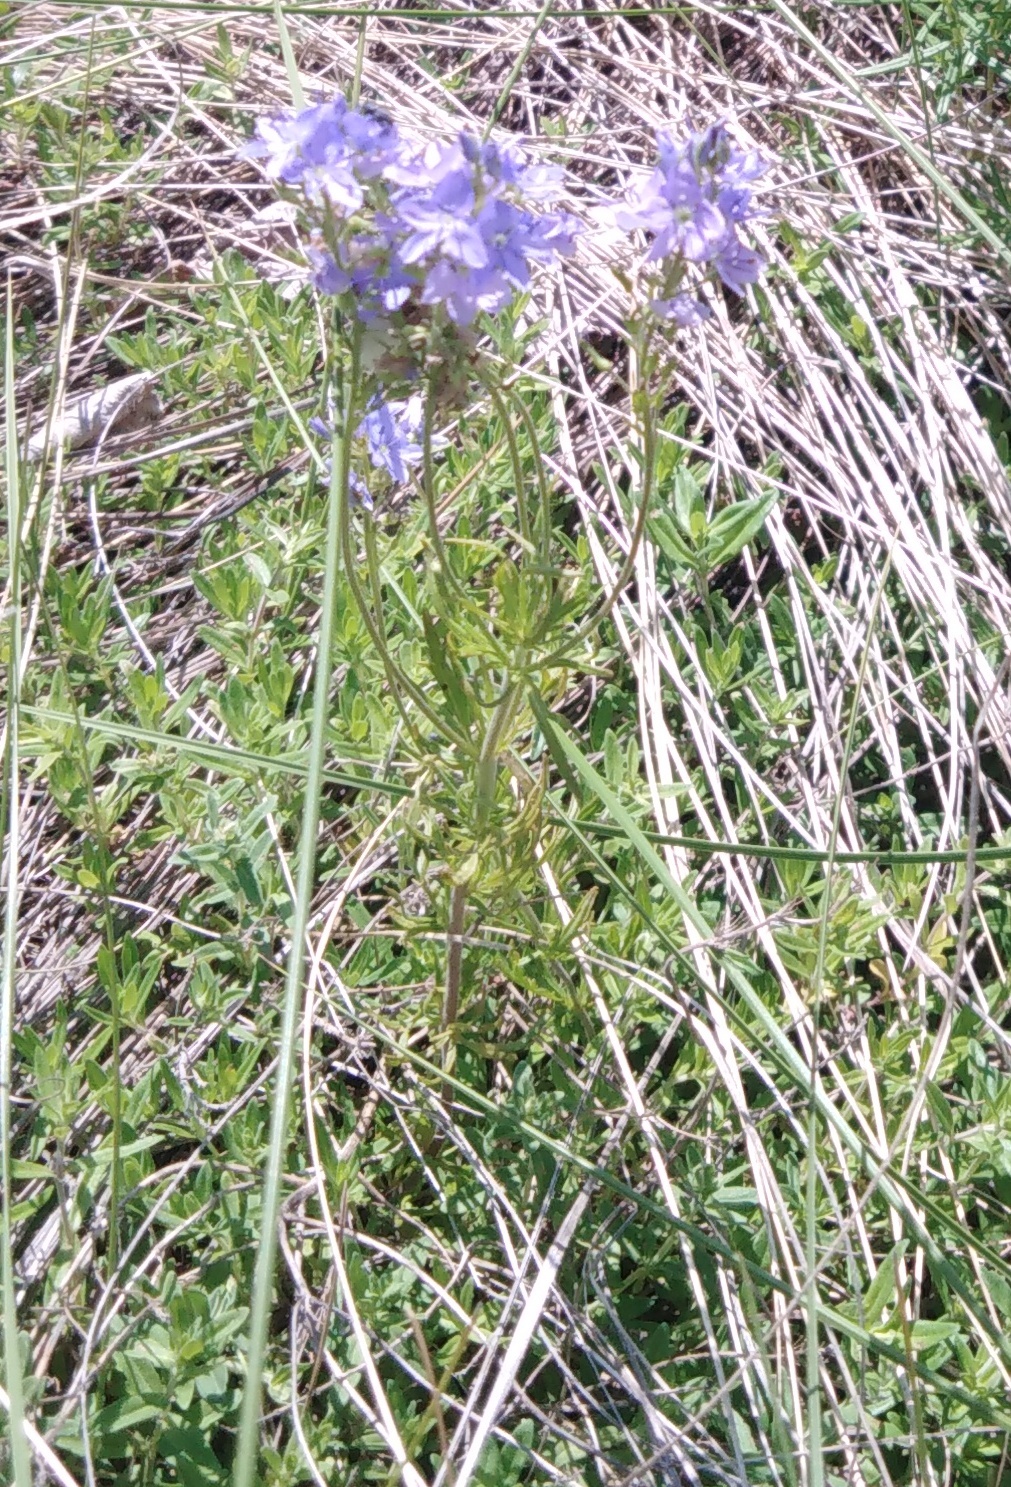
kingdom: Plantae
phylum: Tracheophyta
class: Magnoliopsida
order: Lamiales
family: Plantaginaceae
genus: Veronica
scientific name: Veronica austriaca
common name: Large speedwell
